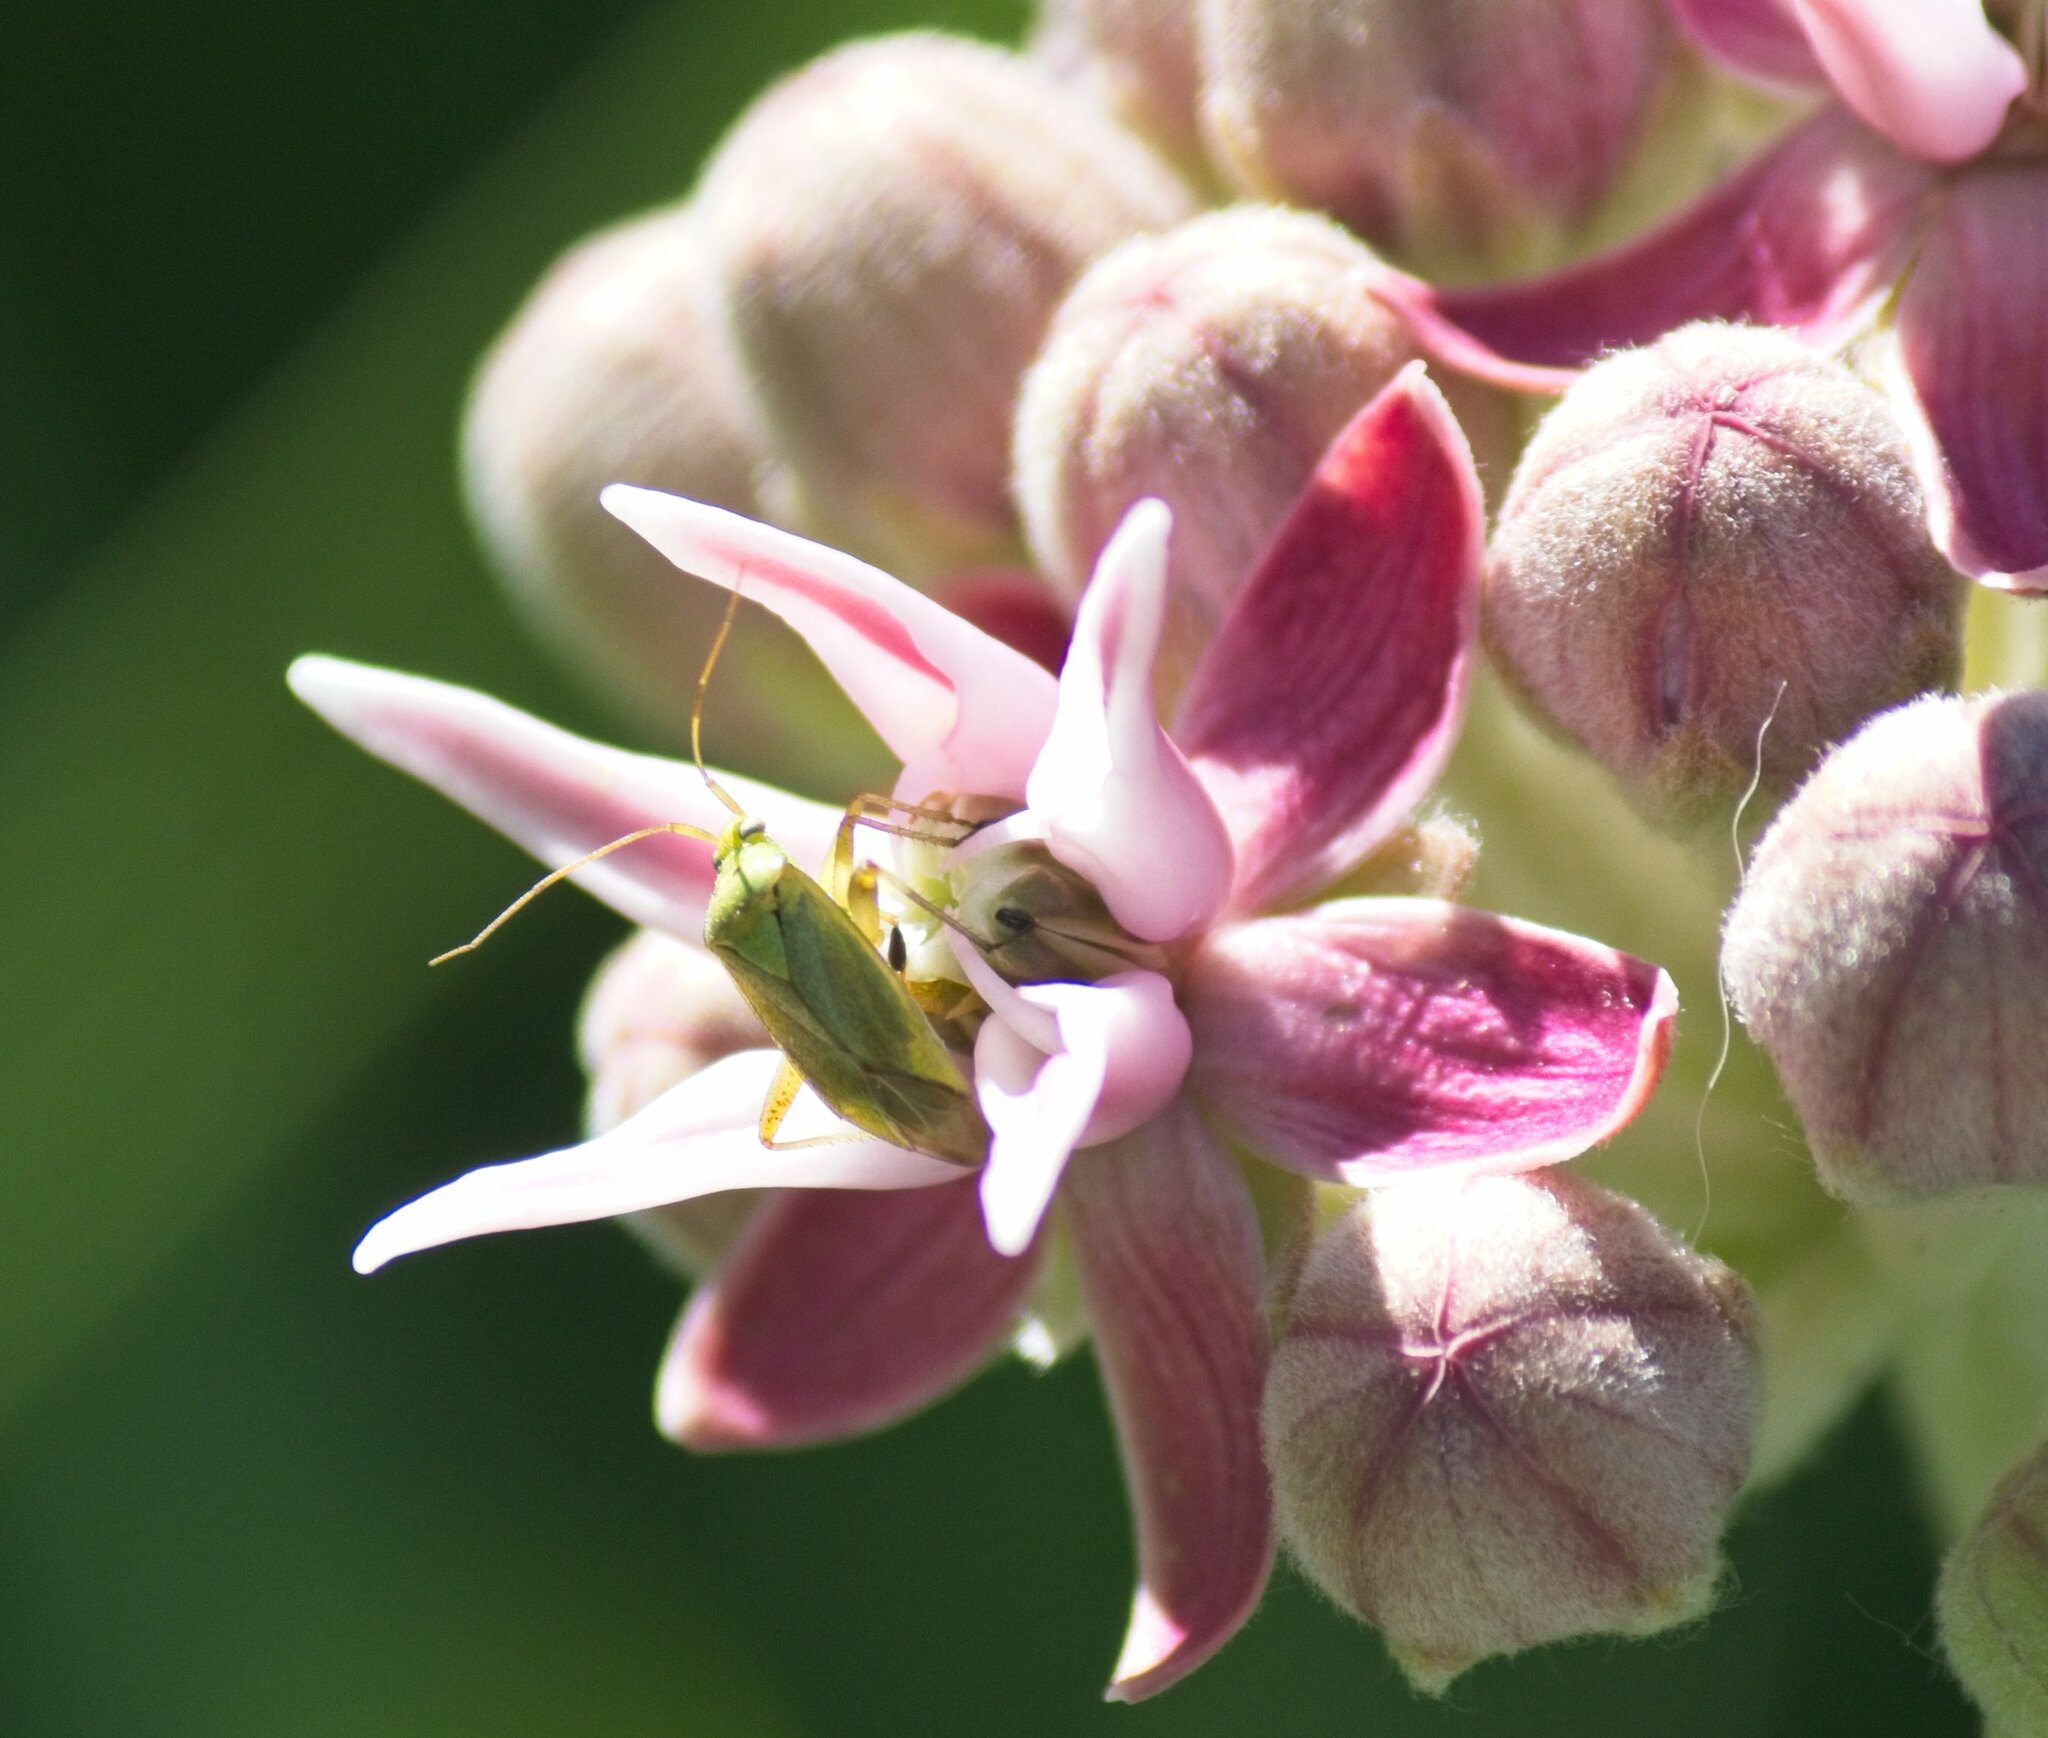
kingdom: Animalia
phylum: Arthropoda
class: Insecta
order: Hemiptera
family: Miridae
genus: Closterotomus
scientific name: Closterotomus norvegicus
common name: Plant bug
